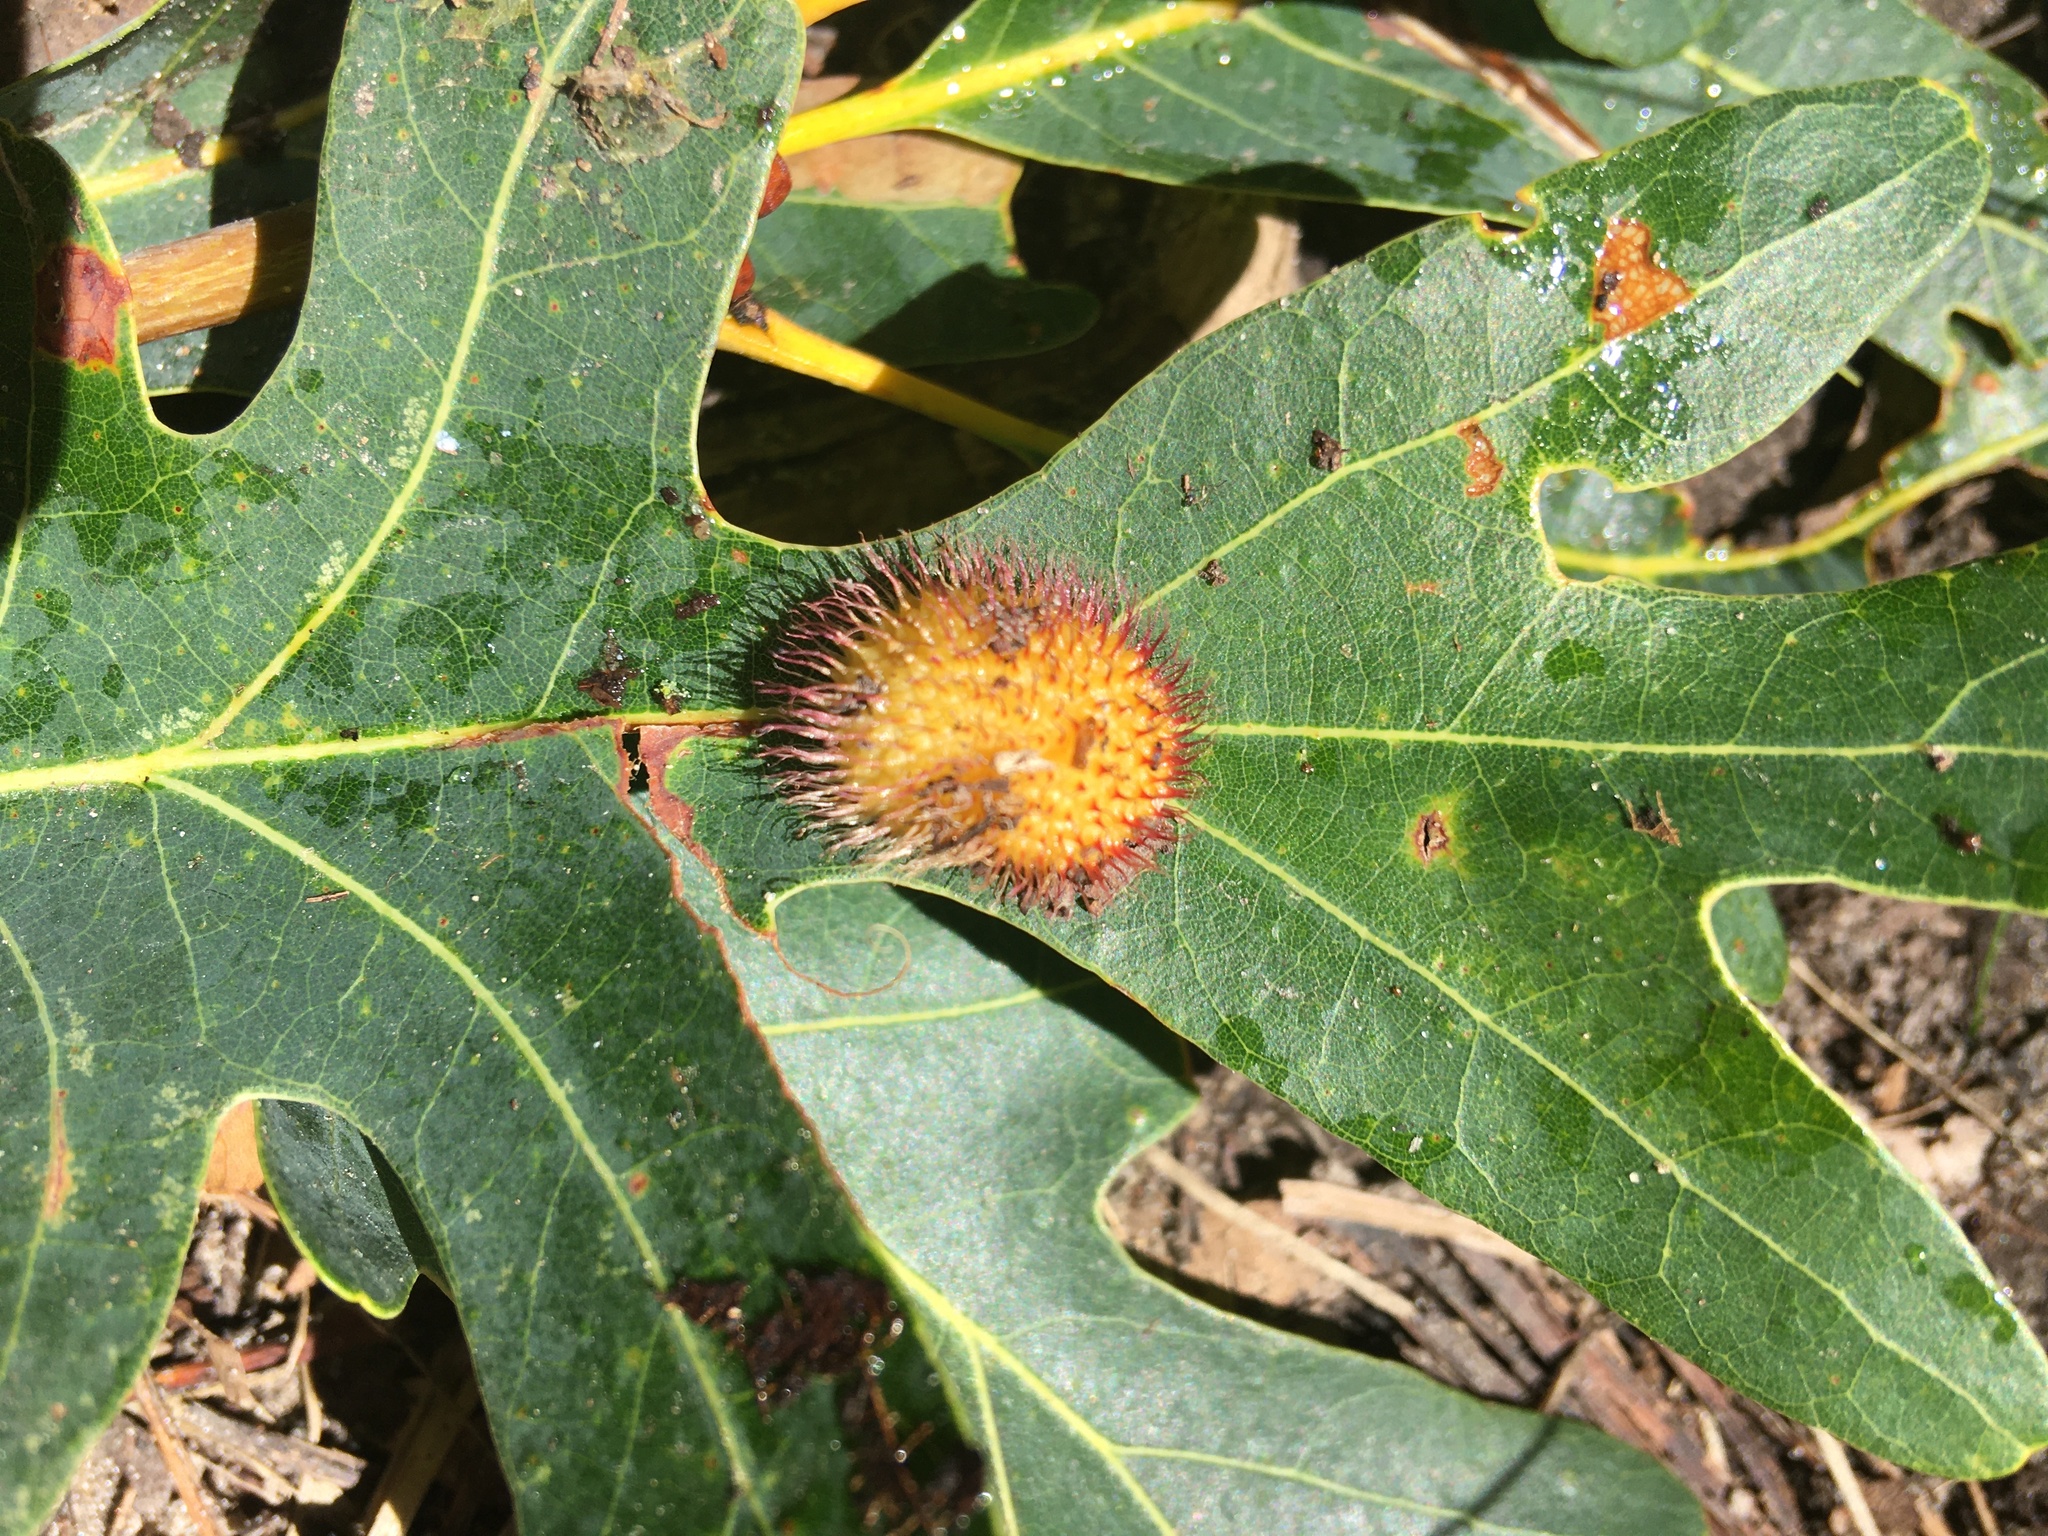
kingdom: Animalia
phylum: Arthropoda
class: Insecta
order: Hymenoptera
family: Cynipidae
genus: Acraspis
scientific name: Acraspis erinacei
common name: Hedgehog gall wasp
